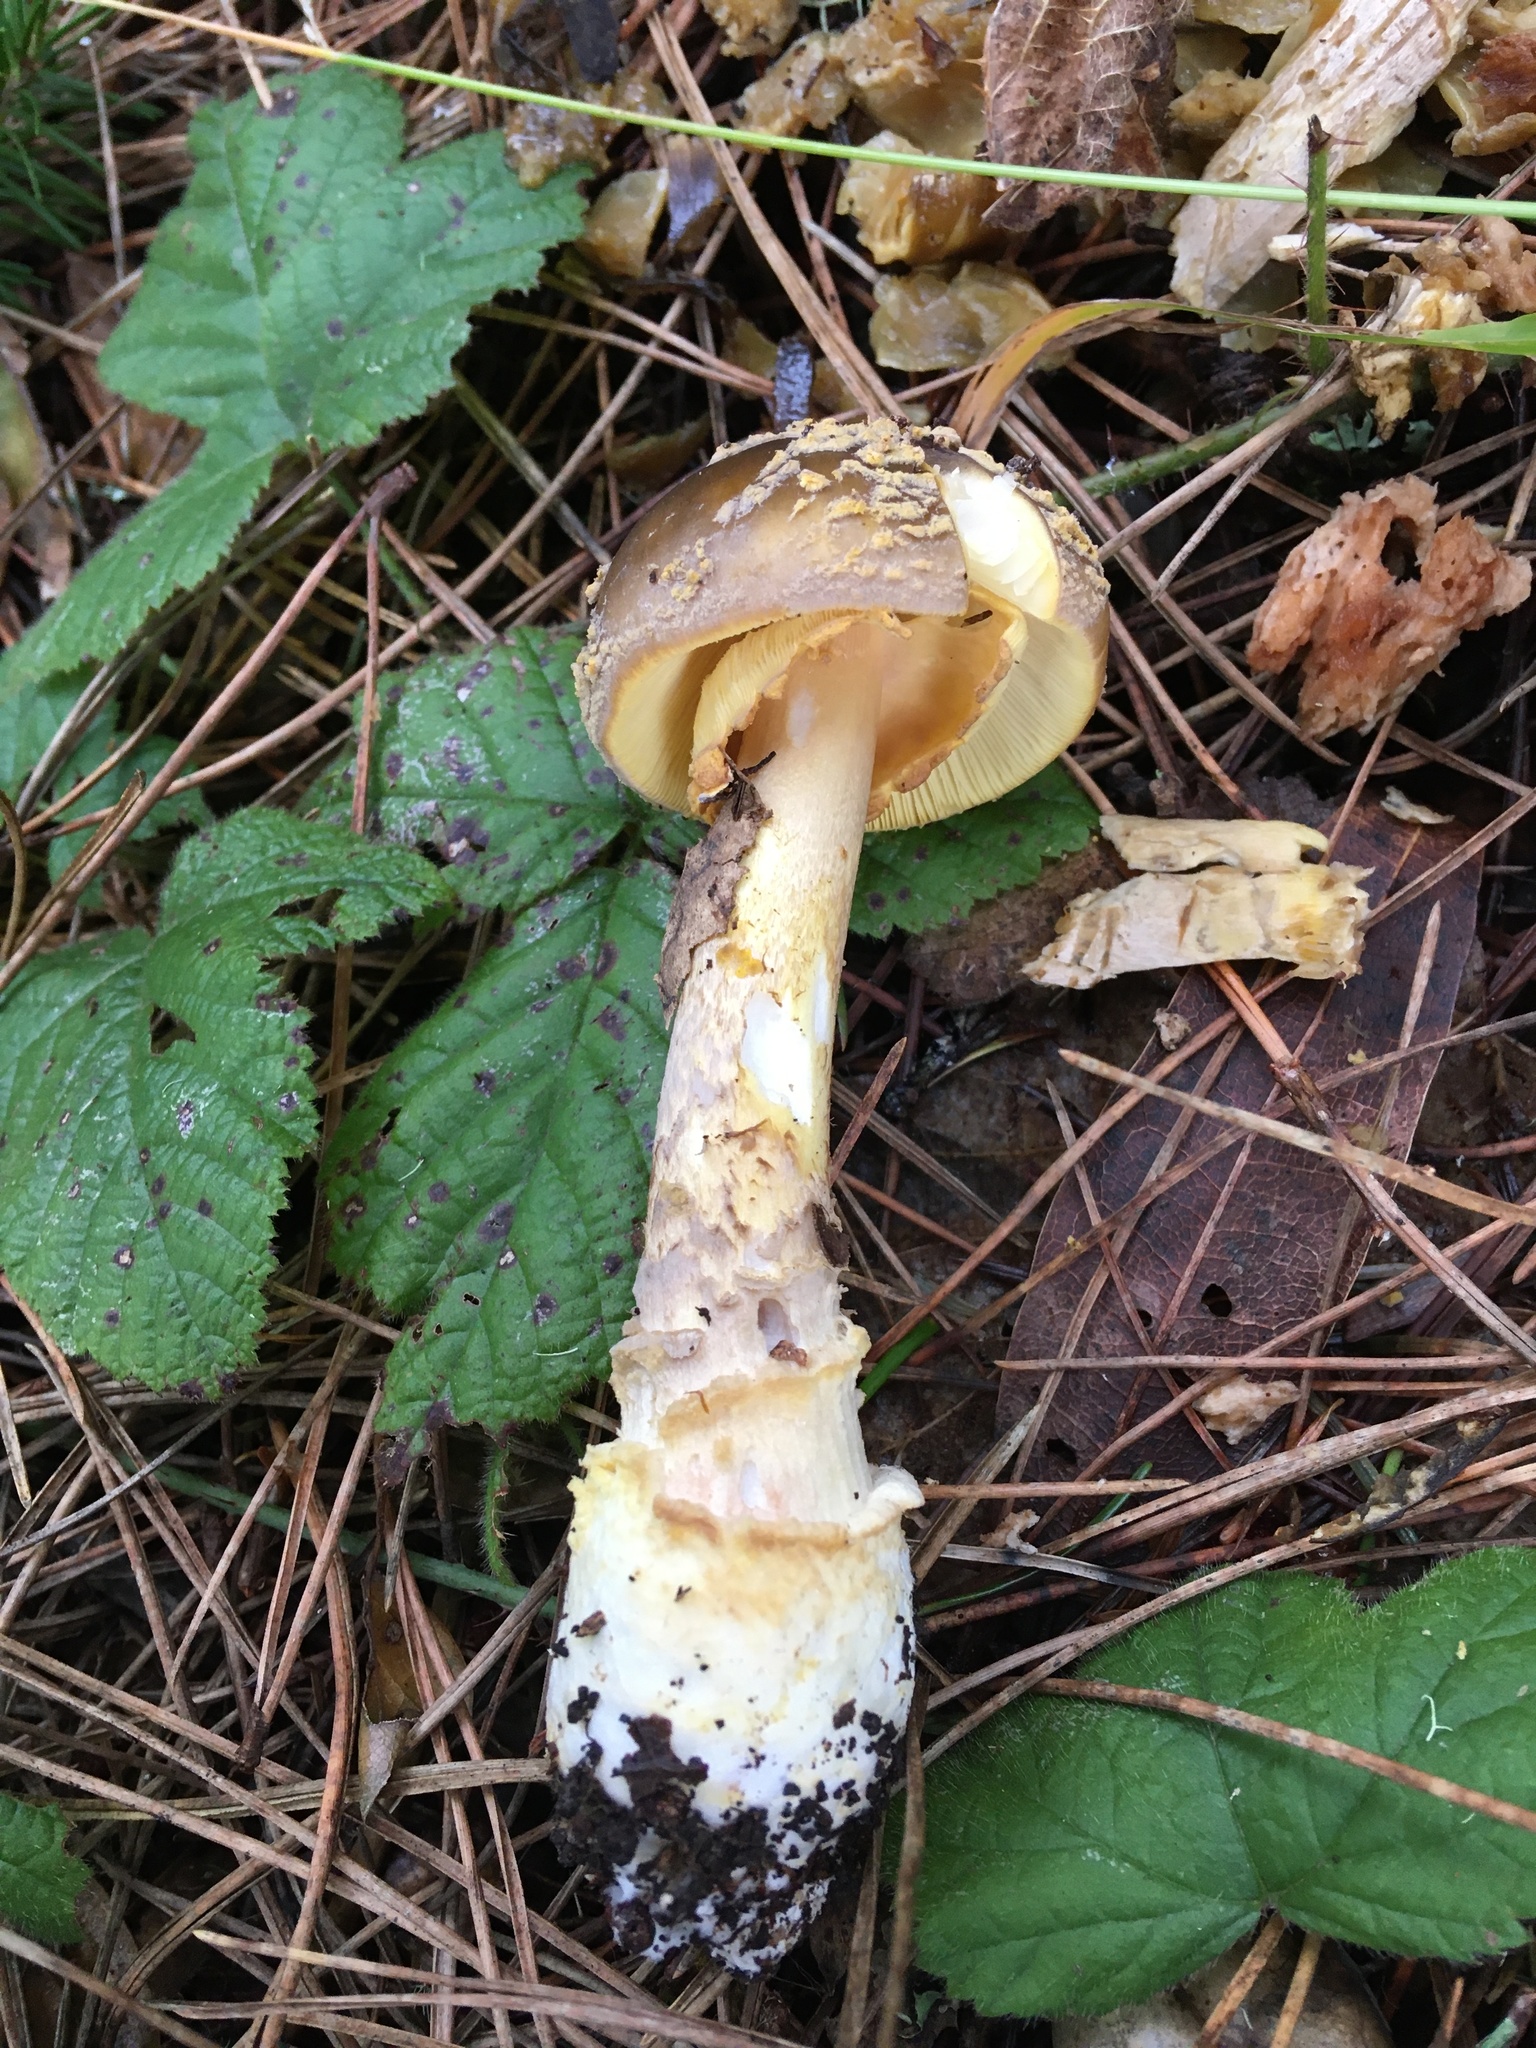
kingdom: Fungi
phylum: Basidiomycota
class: Agaricomycetes
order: Agaricales
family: Amanitaceae
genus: Amanita
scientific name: Amanita augusta
